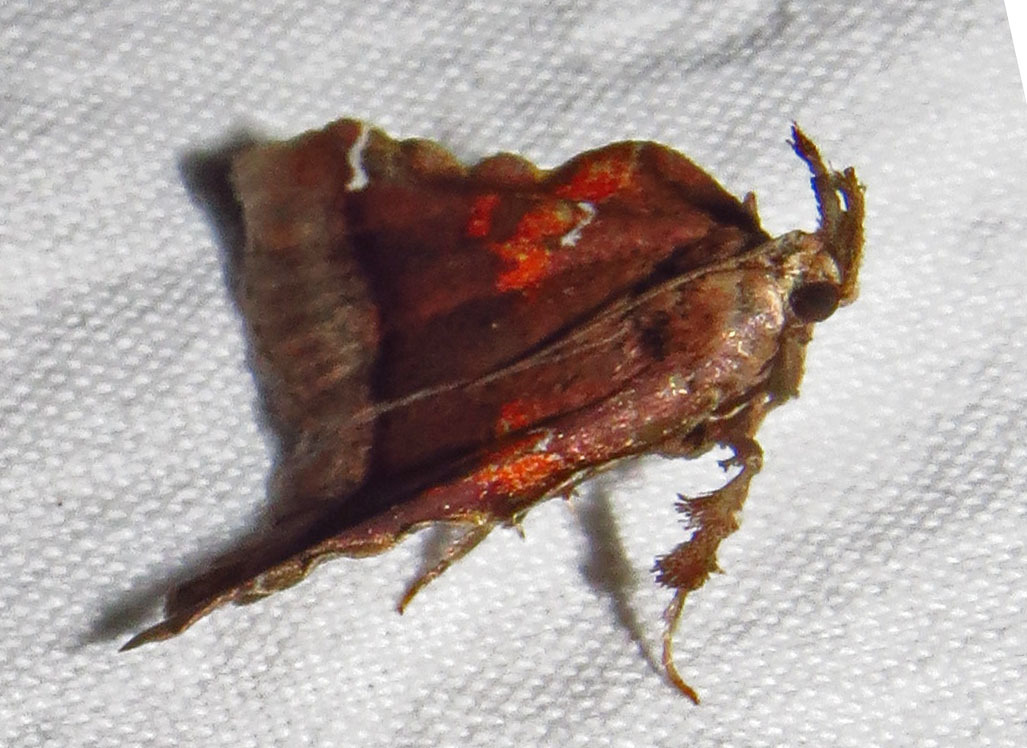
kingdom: Animalia
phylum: Arthropoda
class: Insecta
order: Lepidoptera
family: Pyralidae
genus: Clydonopteron
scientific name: Clydonopteron sacculana
